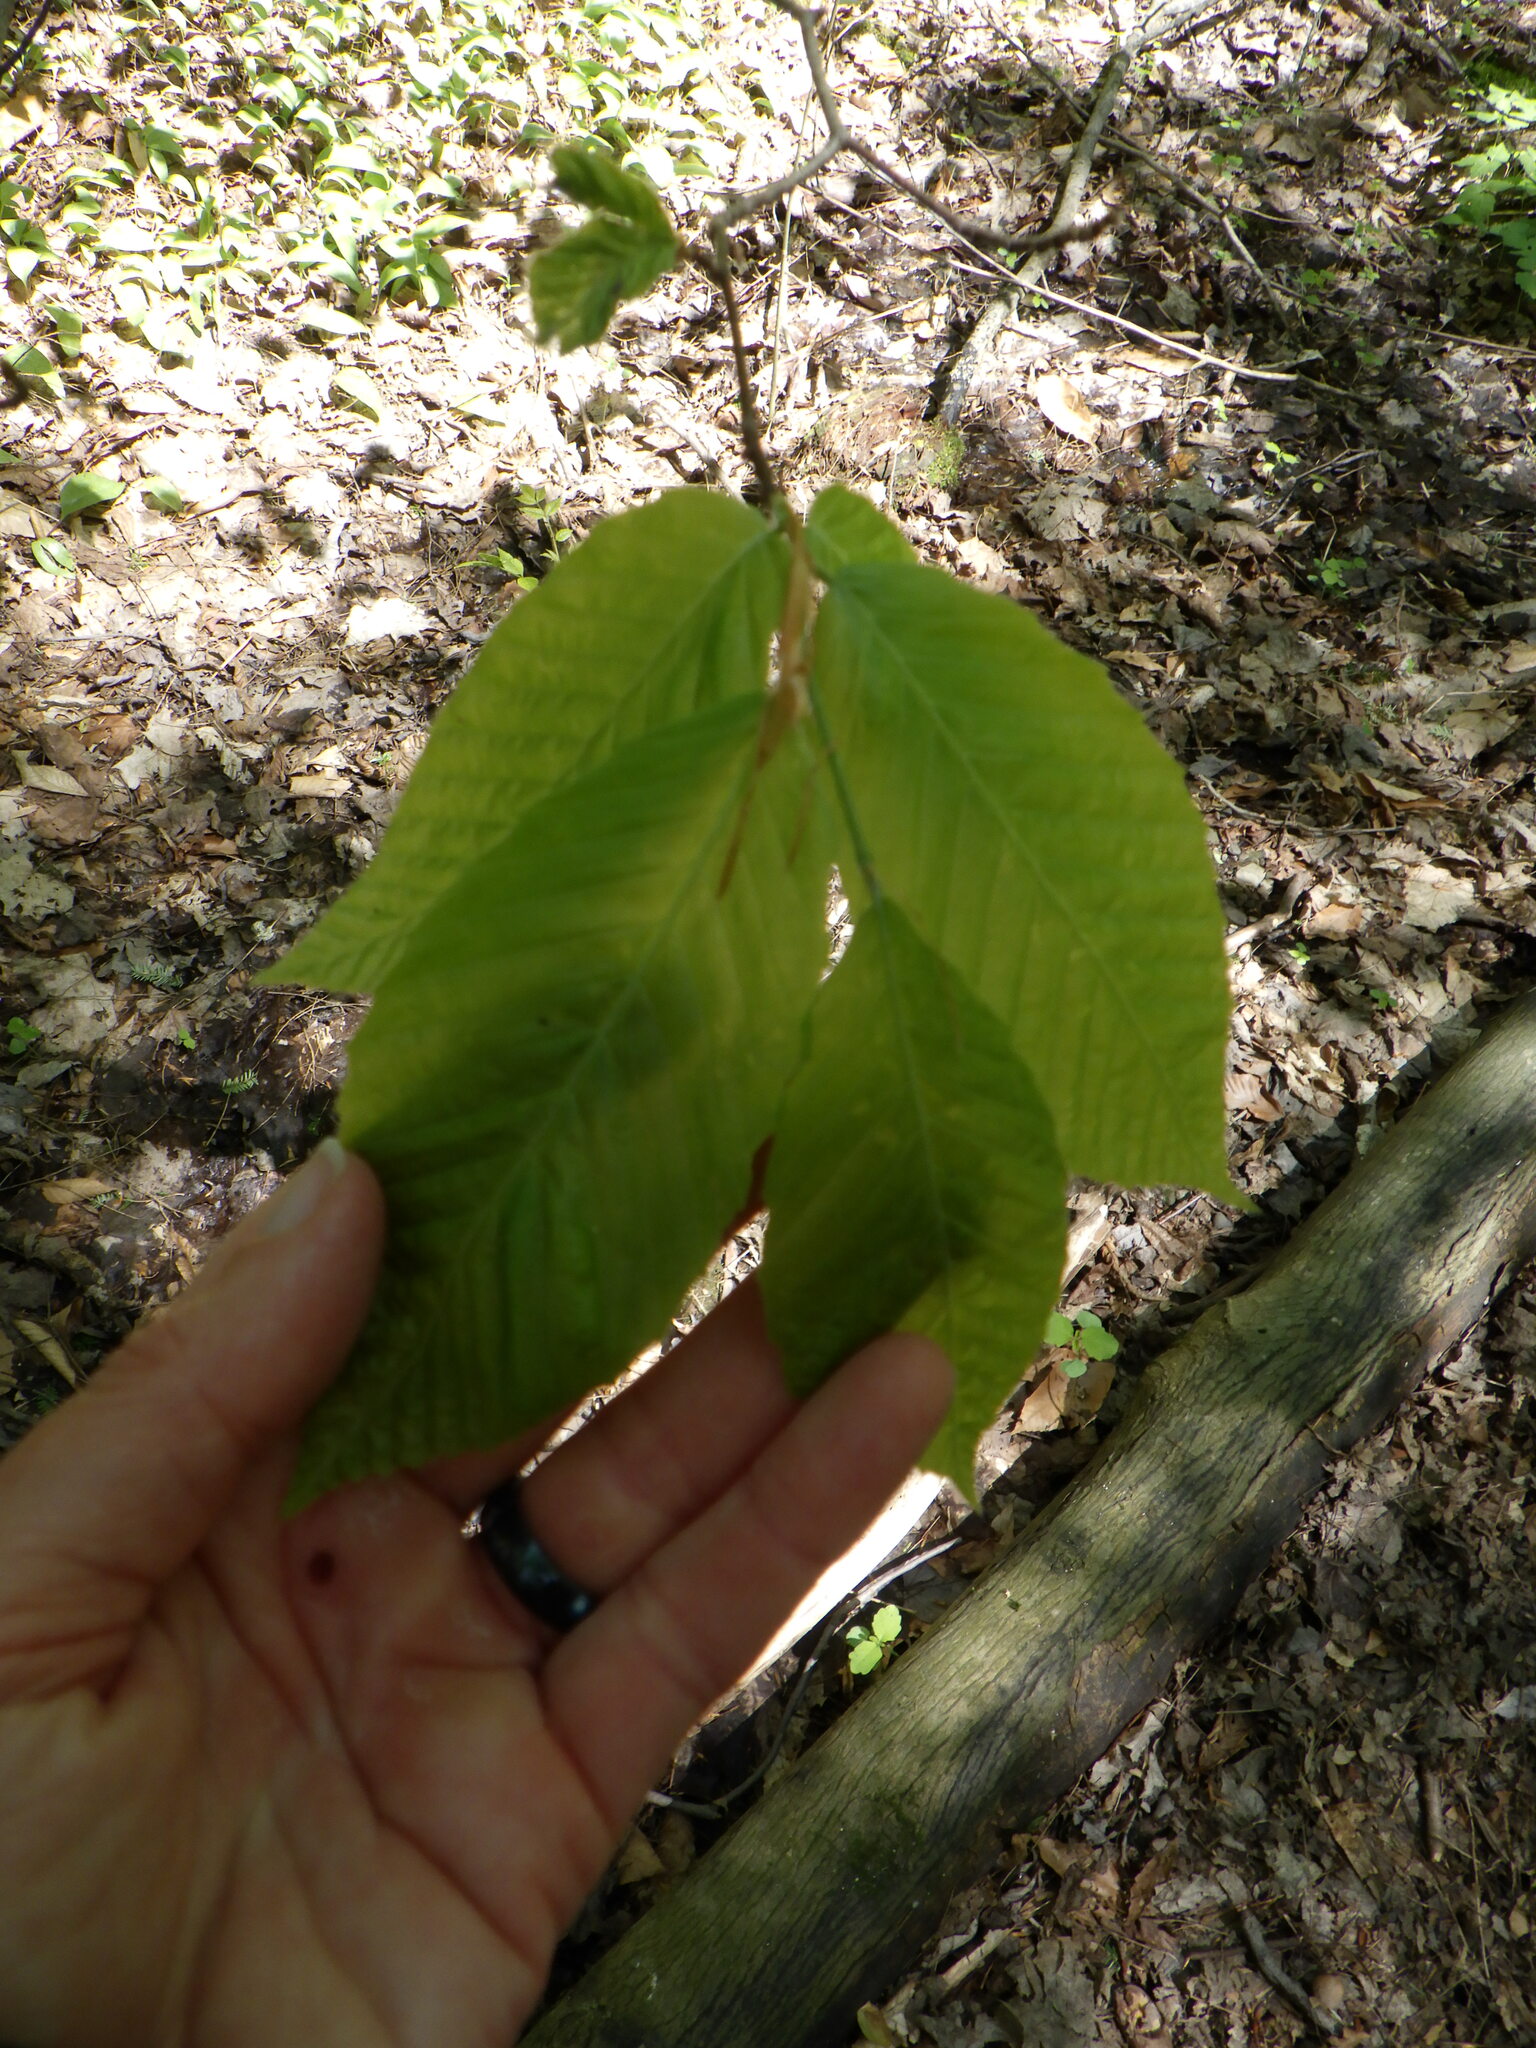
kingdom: Plantae
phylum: Tracheophyta
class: Magnoliopsida
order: Fagales
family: Juglandaceae
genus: Carya
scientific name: Carya
